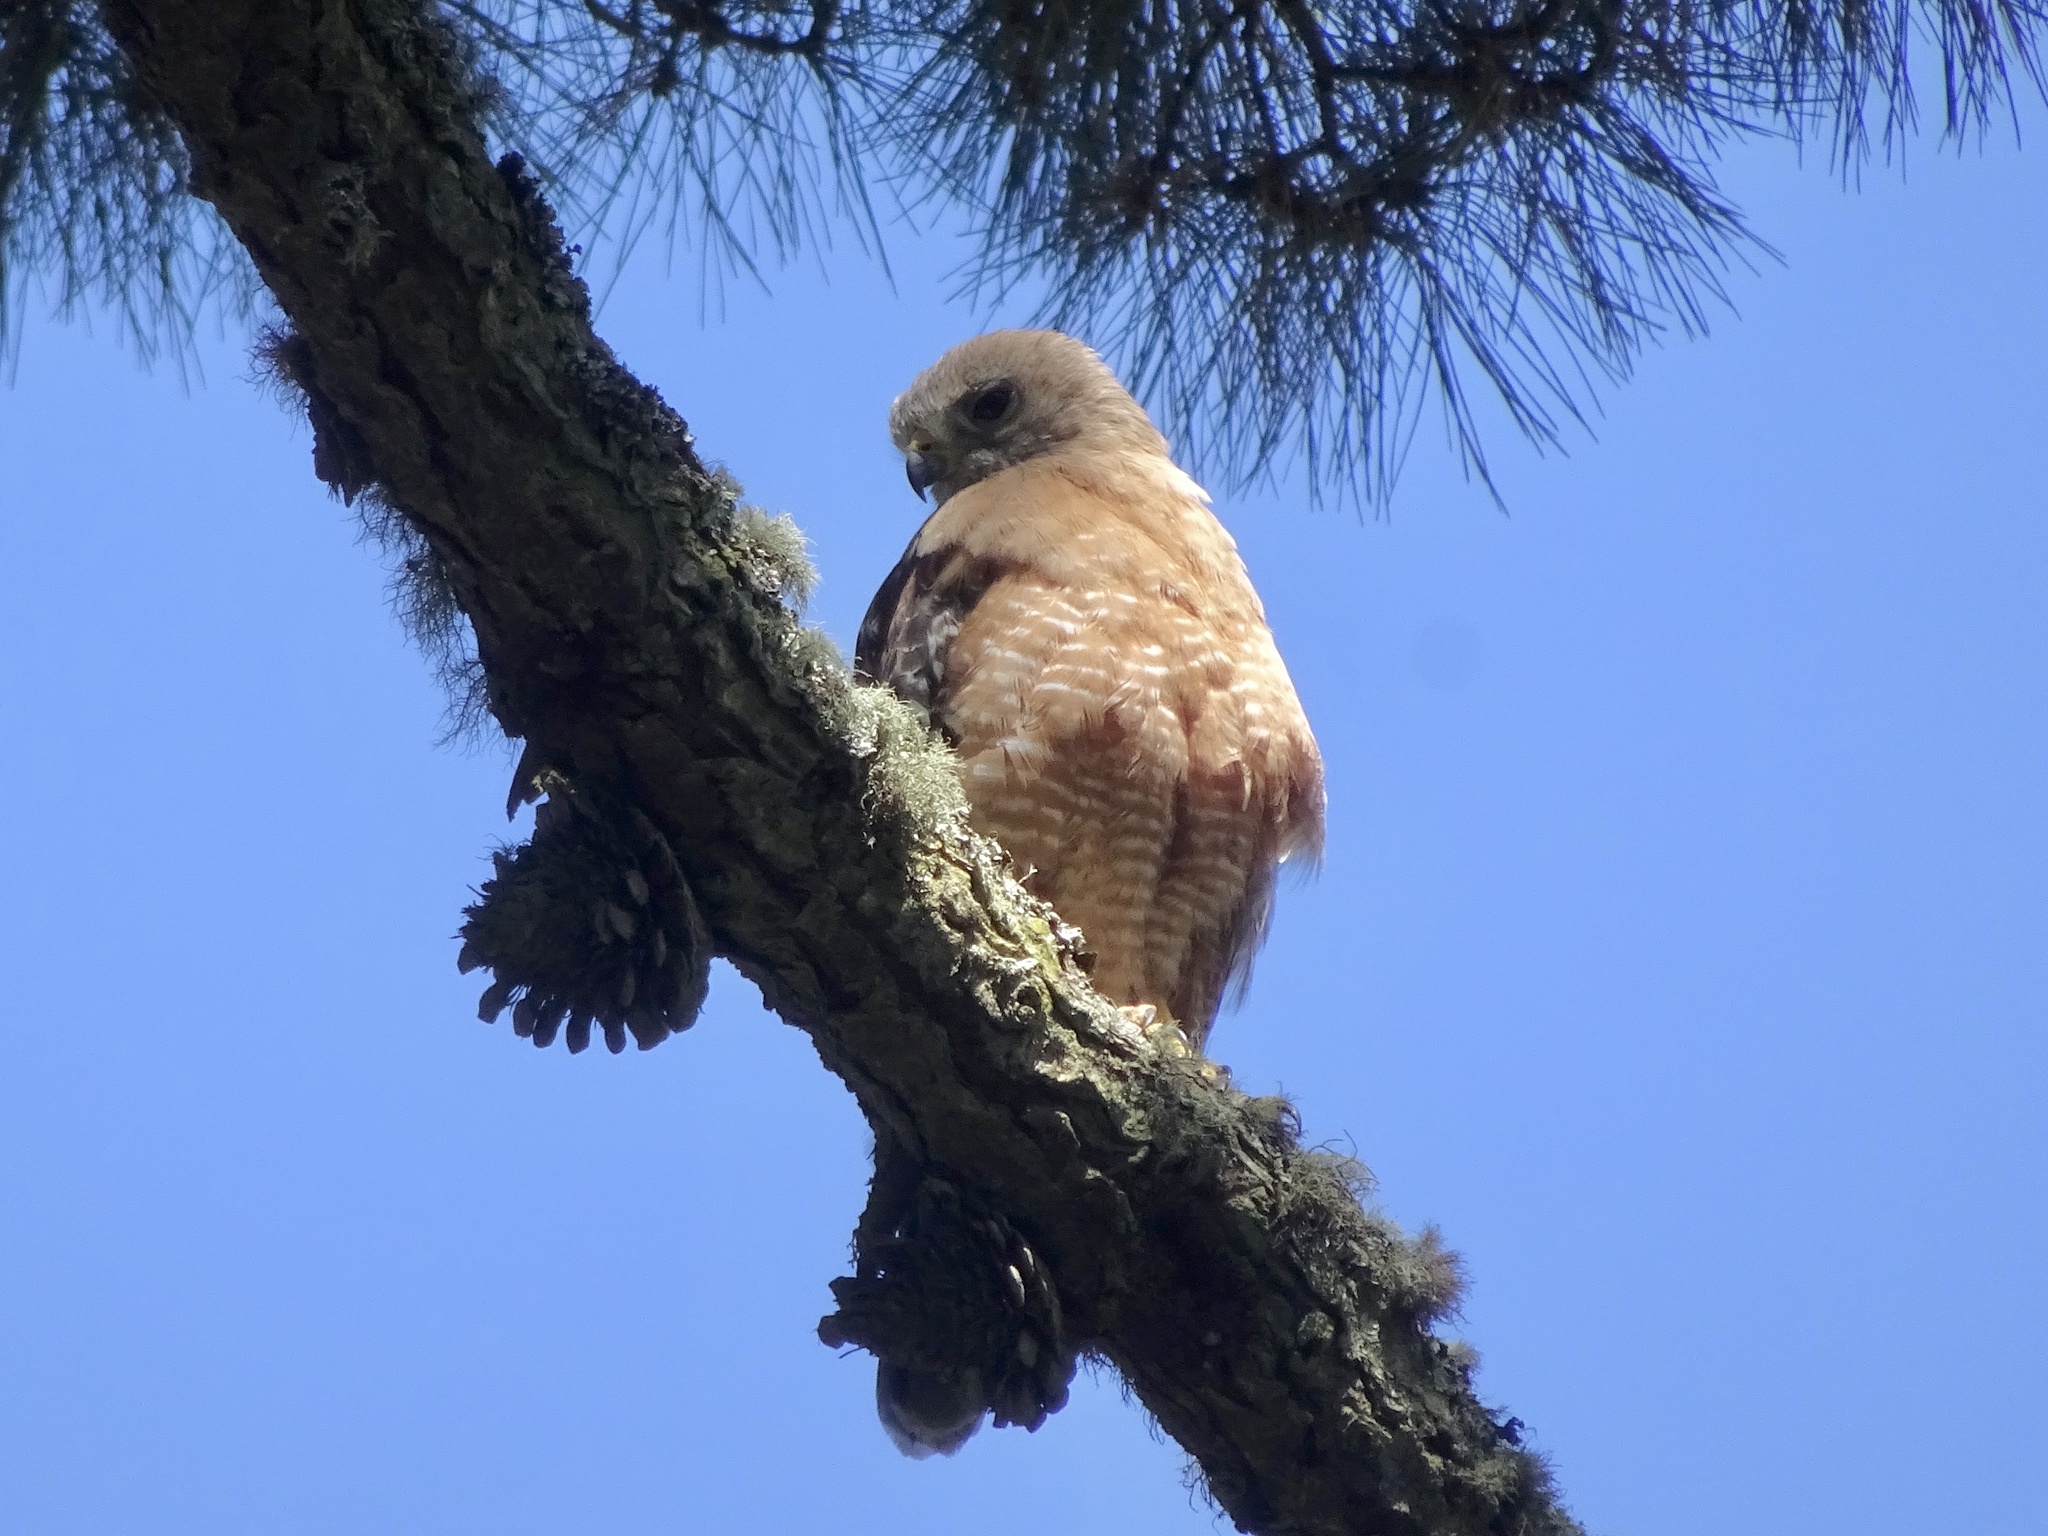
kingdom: Animalia
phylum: Chordata
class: Aves
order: Accipitriformes
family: Accipitridae
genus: Buteo
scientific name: Buteo lineatus
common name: Red-shouldered hawk
